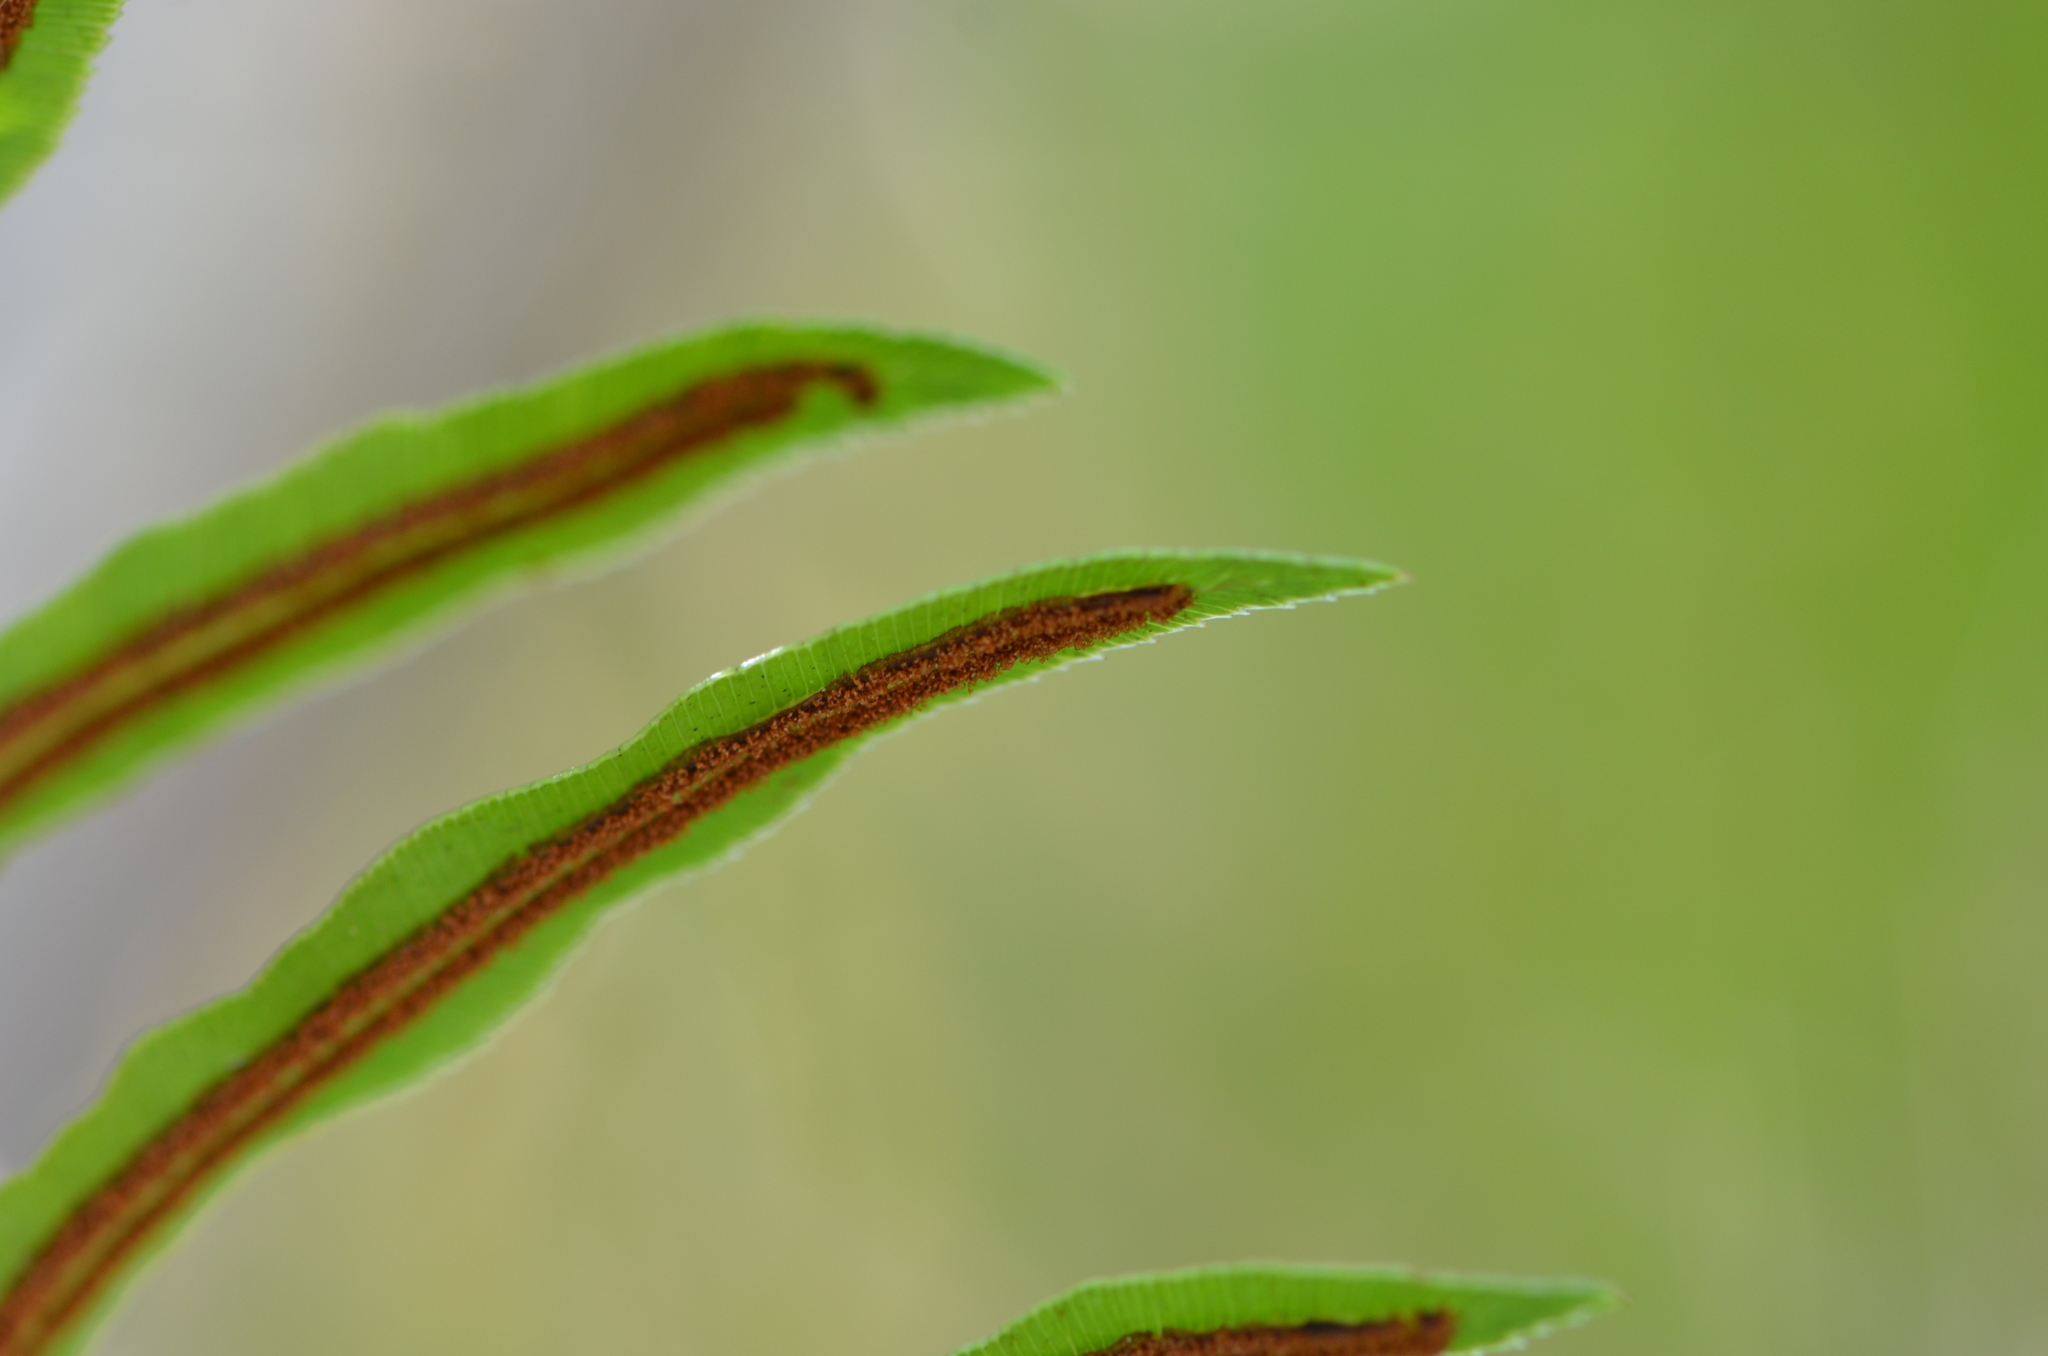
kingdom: Plantae
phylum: Tracheophyta
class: Polypodiopsida
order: Polypodiales
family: Blechnaceae
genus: Telmatoblechnum
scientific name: Telmatoblechnum serrulatum
